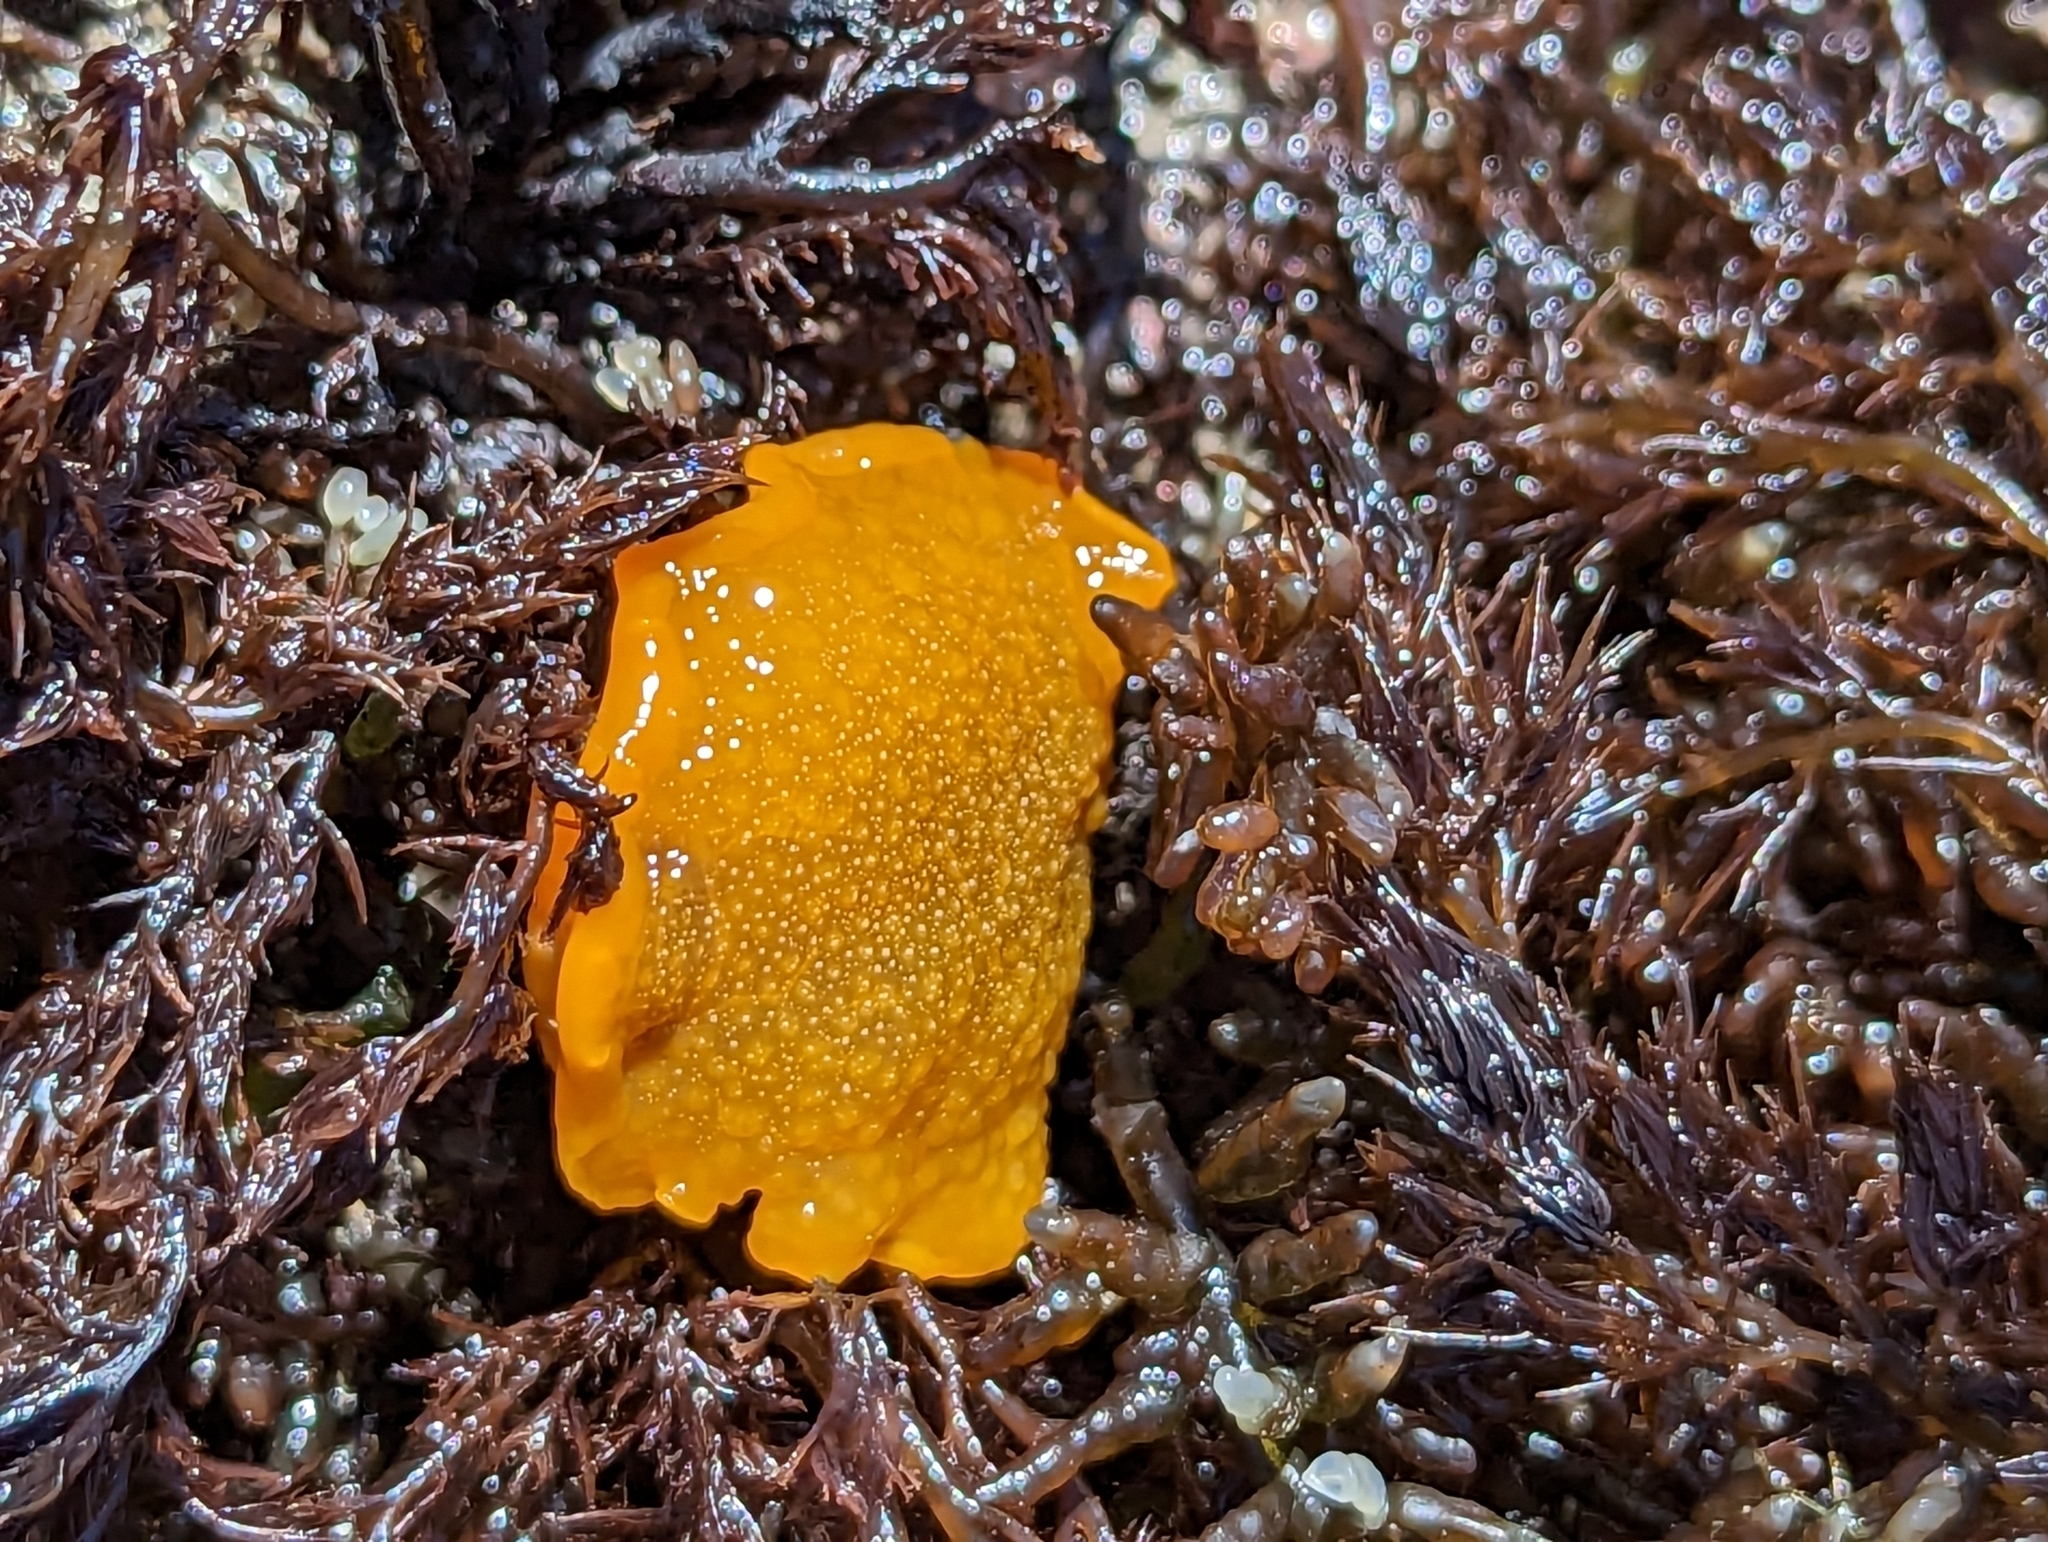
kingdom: Animalia
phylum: Mollusca
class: Gastropoda
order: Nudibranchia
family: Dendrodorididae
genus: Doriopsilla
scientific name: Doriopsilla albopunctata
